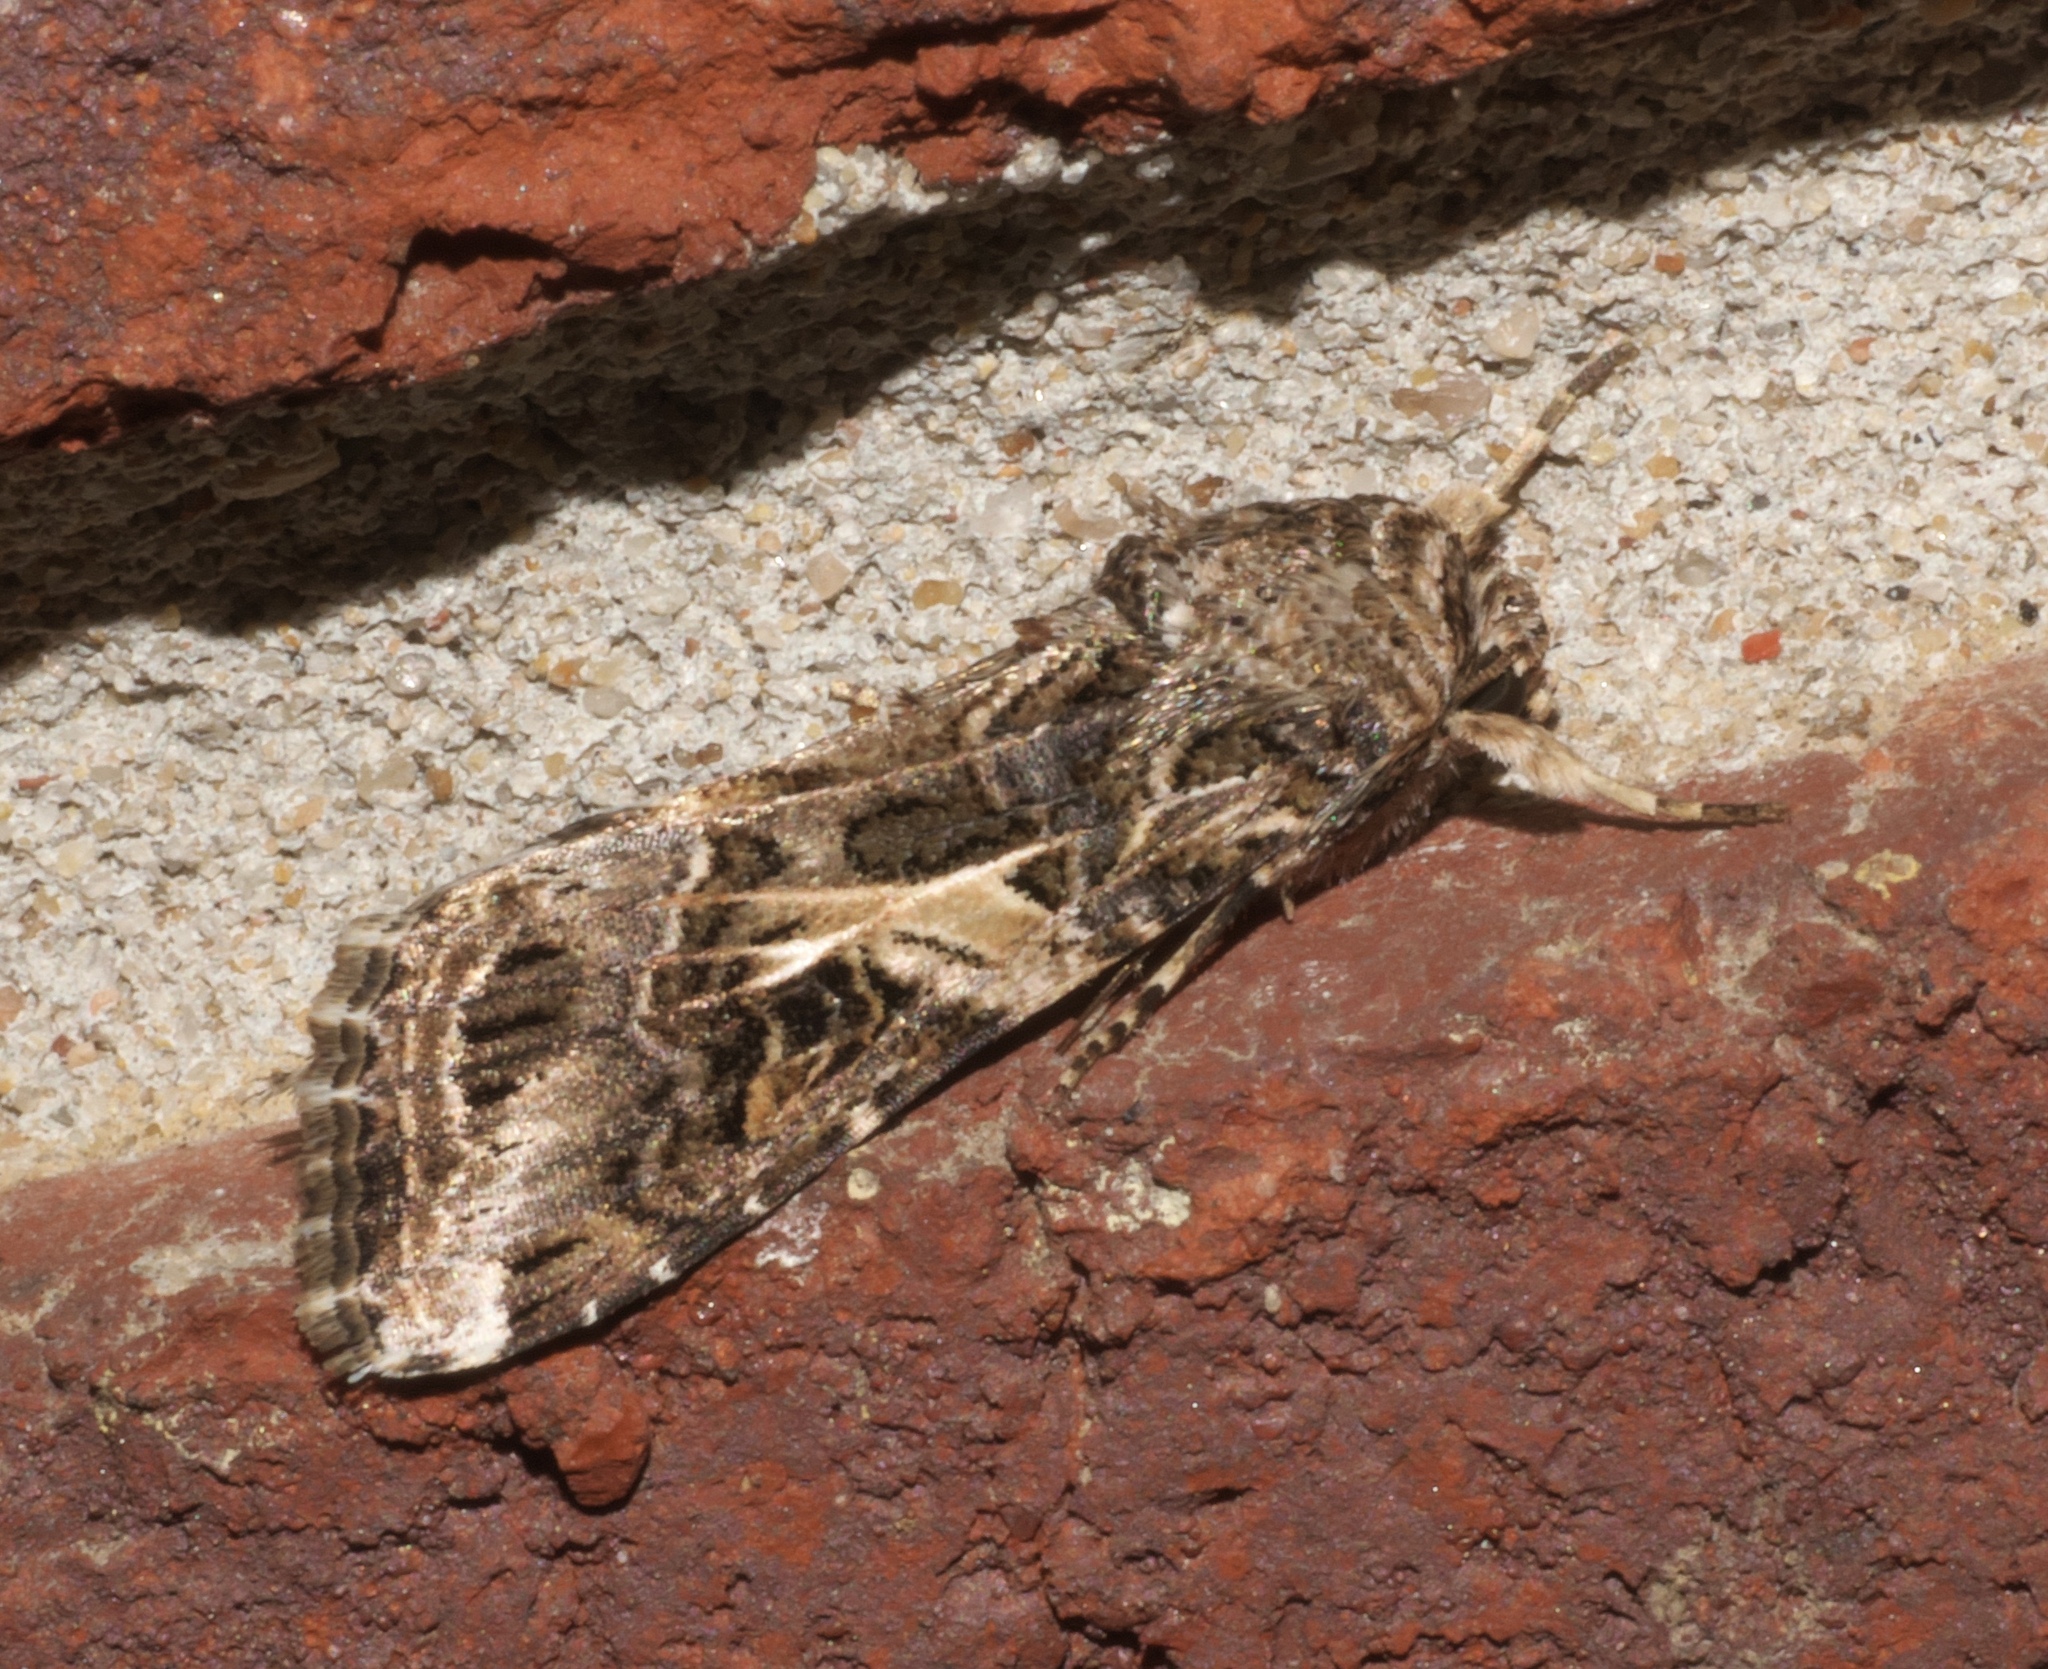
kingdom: Animalia
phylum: Arthropoda
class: Insecta
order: Lepidoptera
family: Noctuidae
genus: Spodoptera
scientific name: Spodoptera ornithogalli
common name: Yellow-striped armyworm
